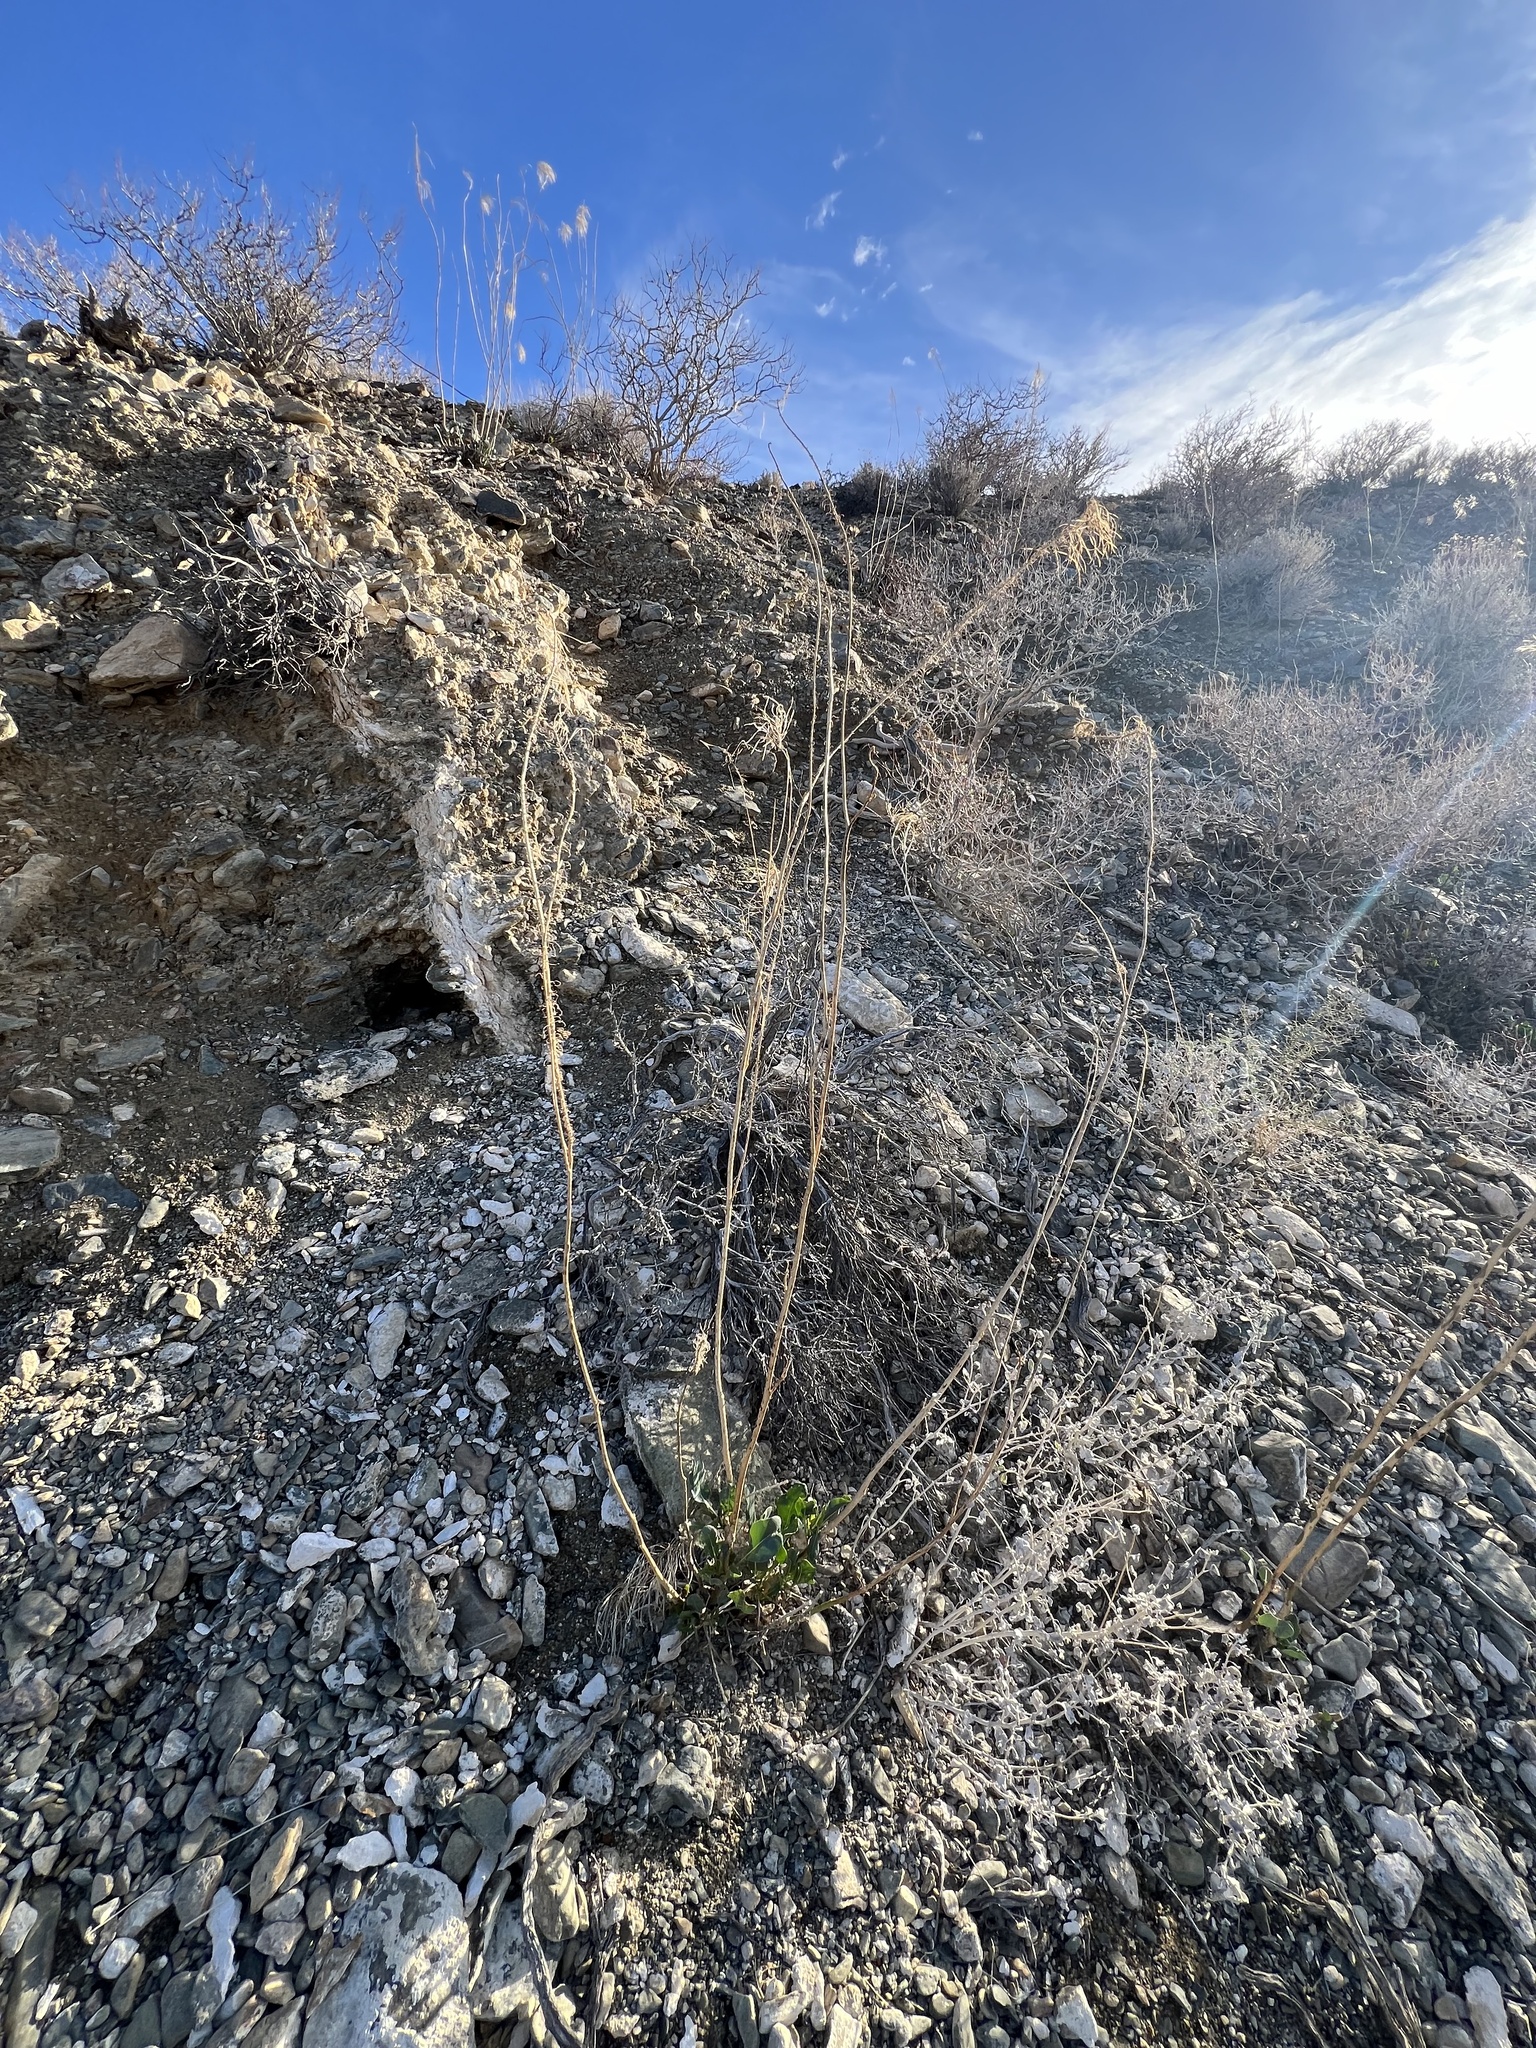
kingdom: Plantae
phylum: Tracheophyta
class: Magnoliopsida
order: Brassicales
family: Brassicaceae
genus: Stanleya
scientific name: Stanleya elata
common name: Panamint prince's plume
